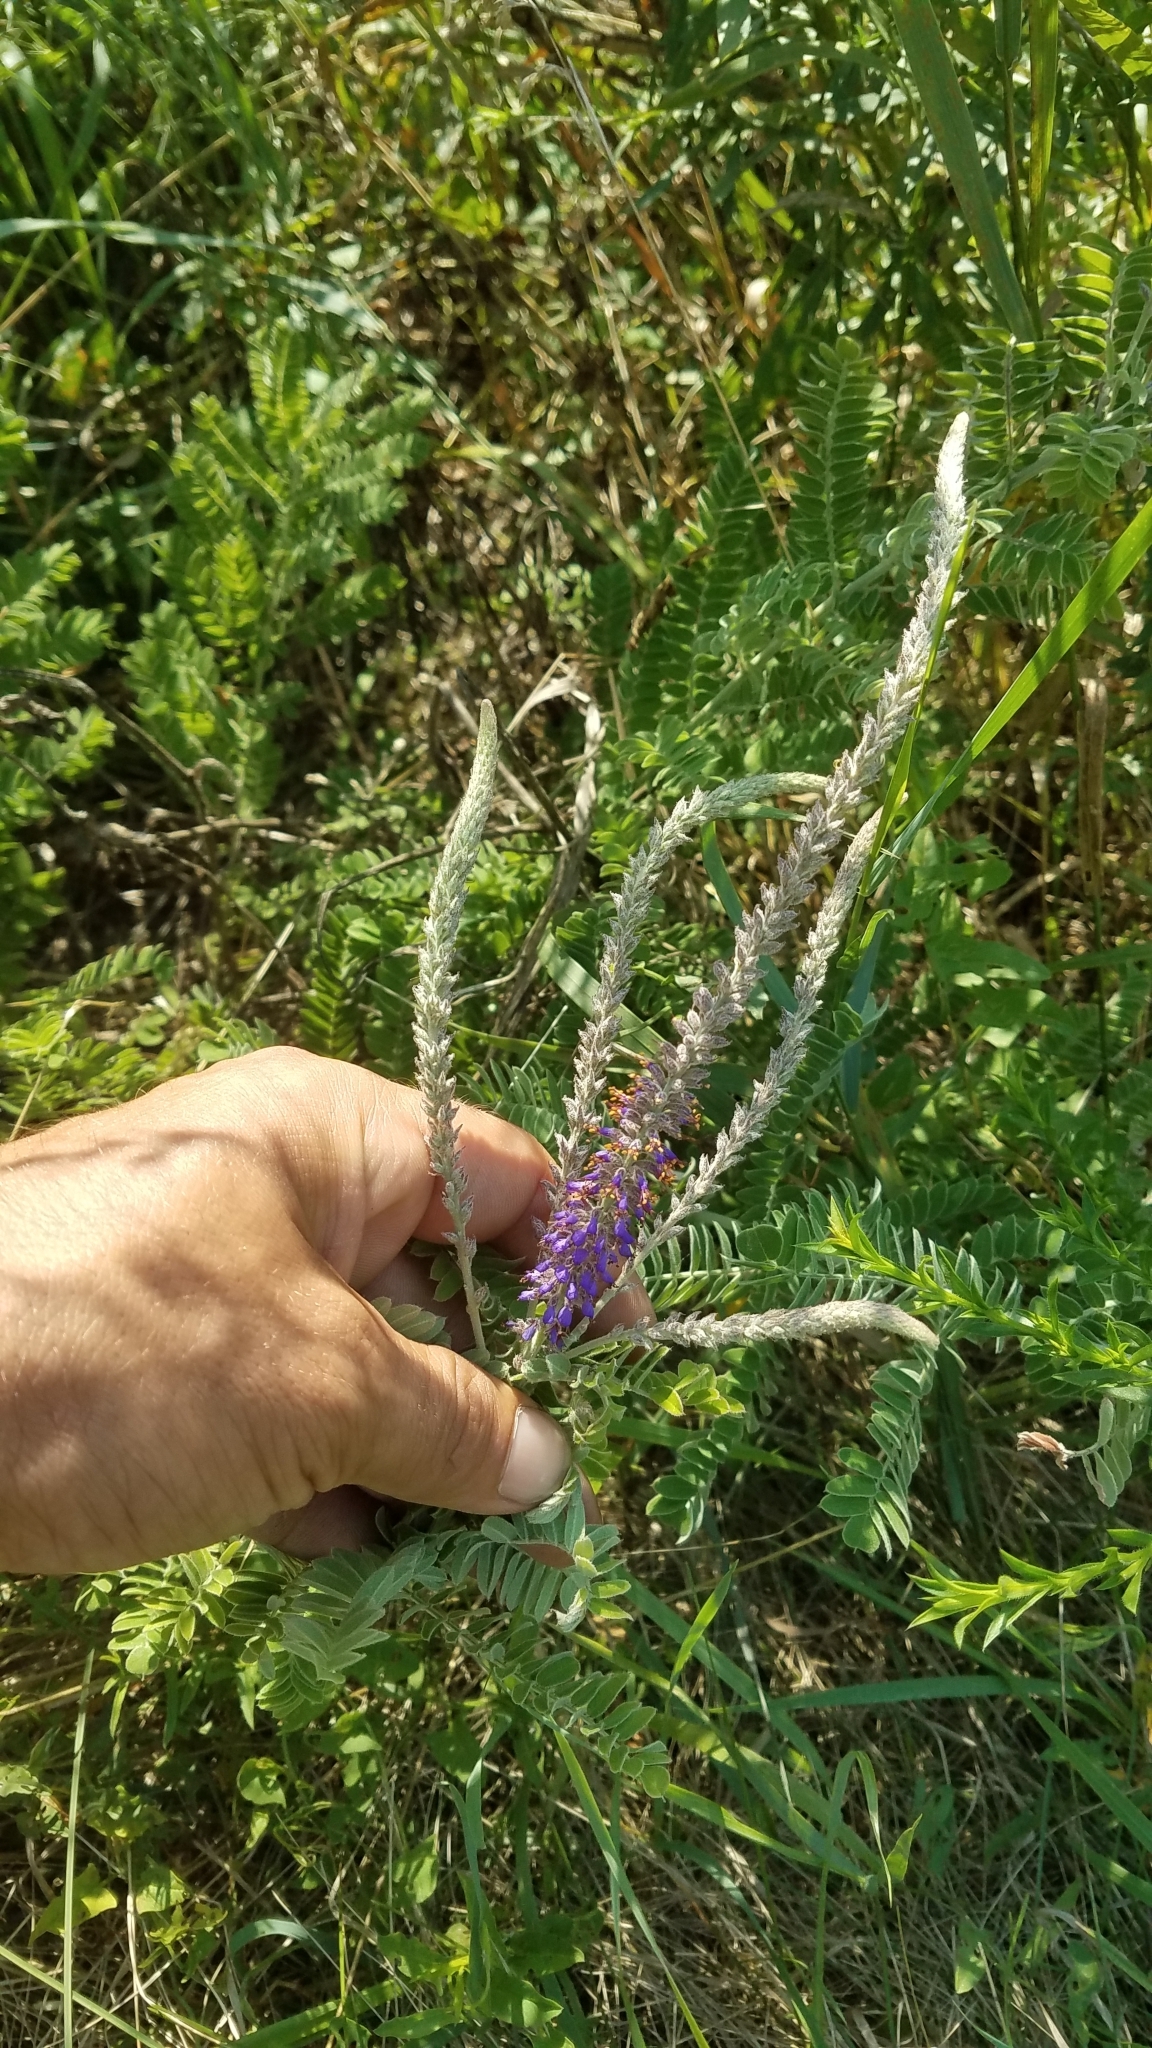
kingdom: Plantae
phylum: Tracheophyta
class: Magnoliopsida
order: Fabales
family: Fabaceae
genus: Amorpha
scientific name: Amorpha canescens
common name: Leadplant
